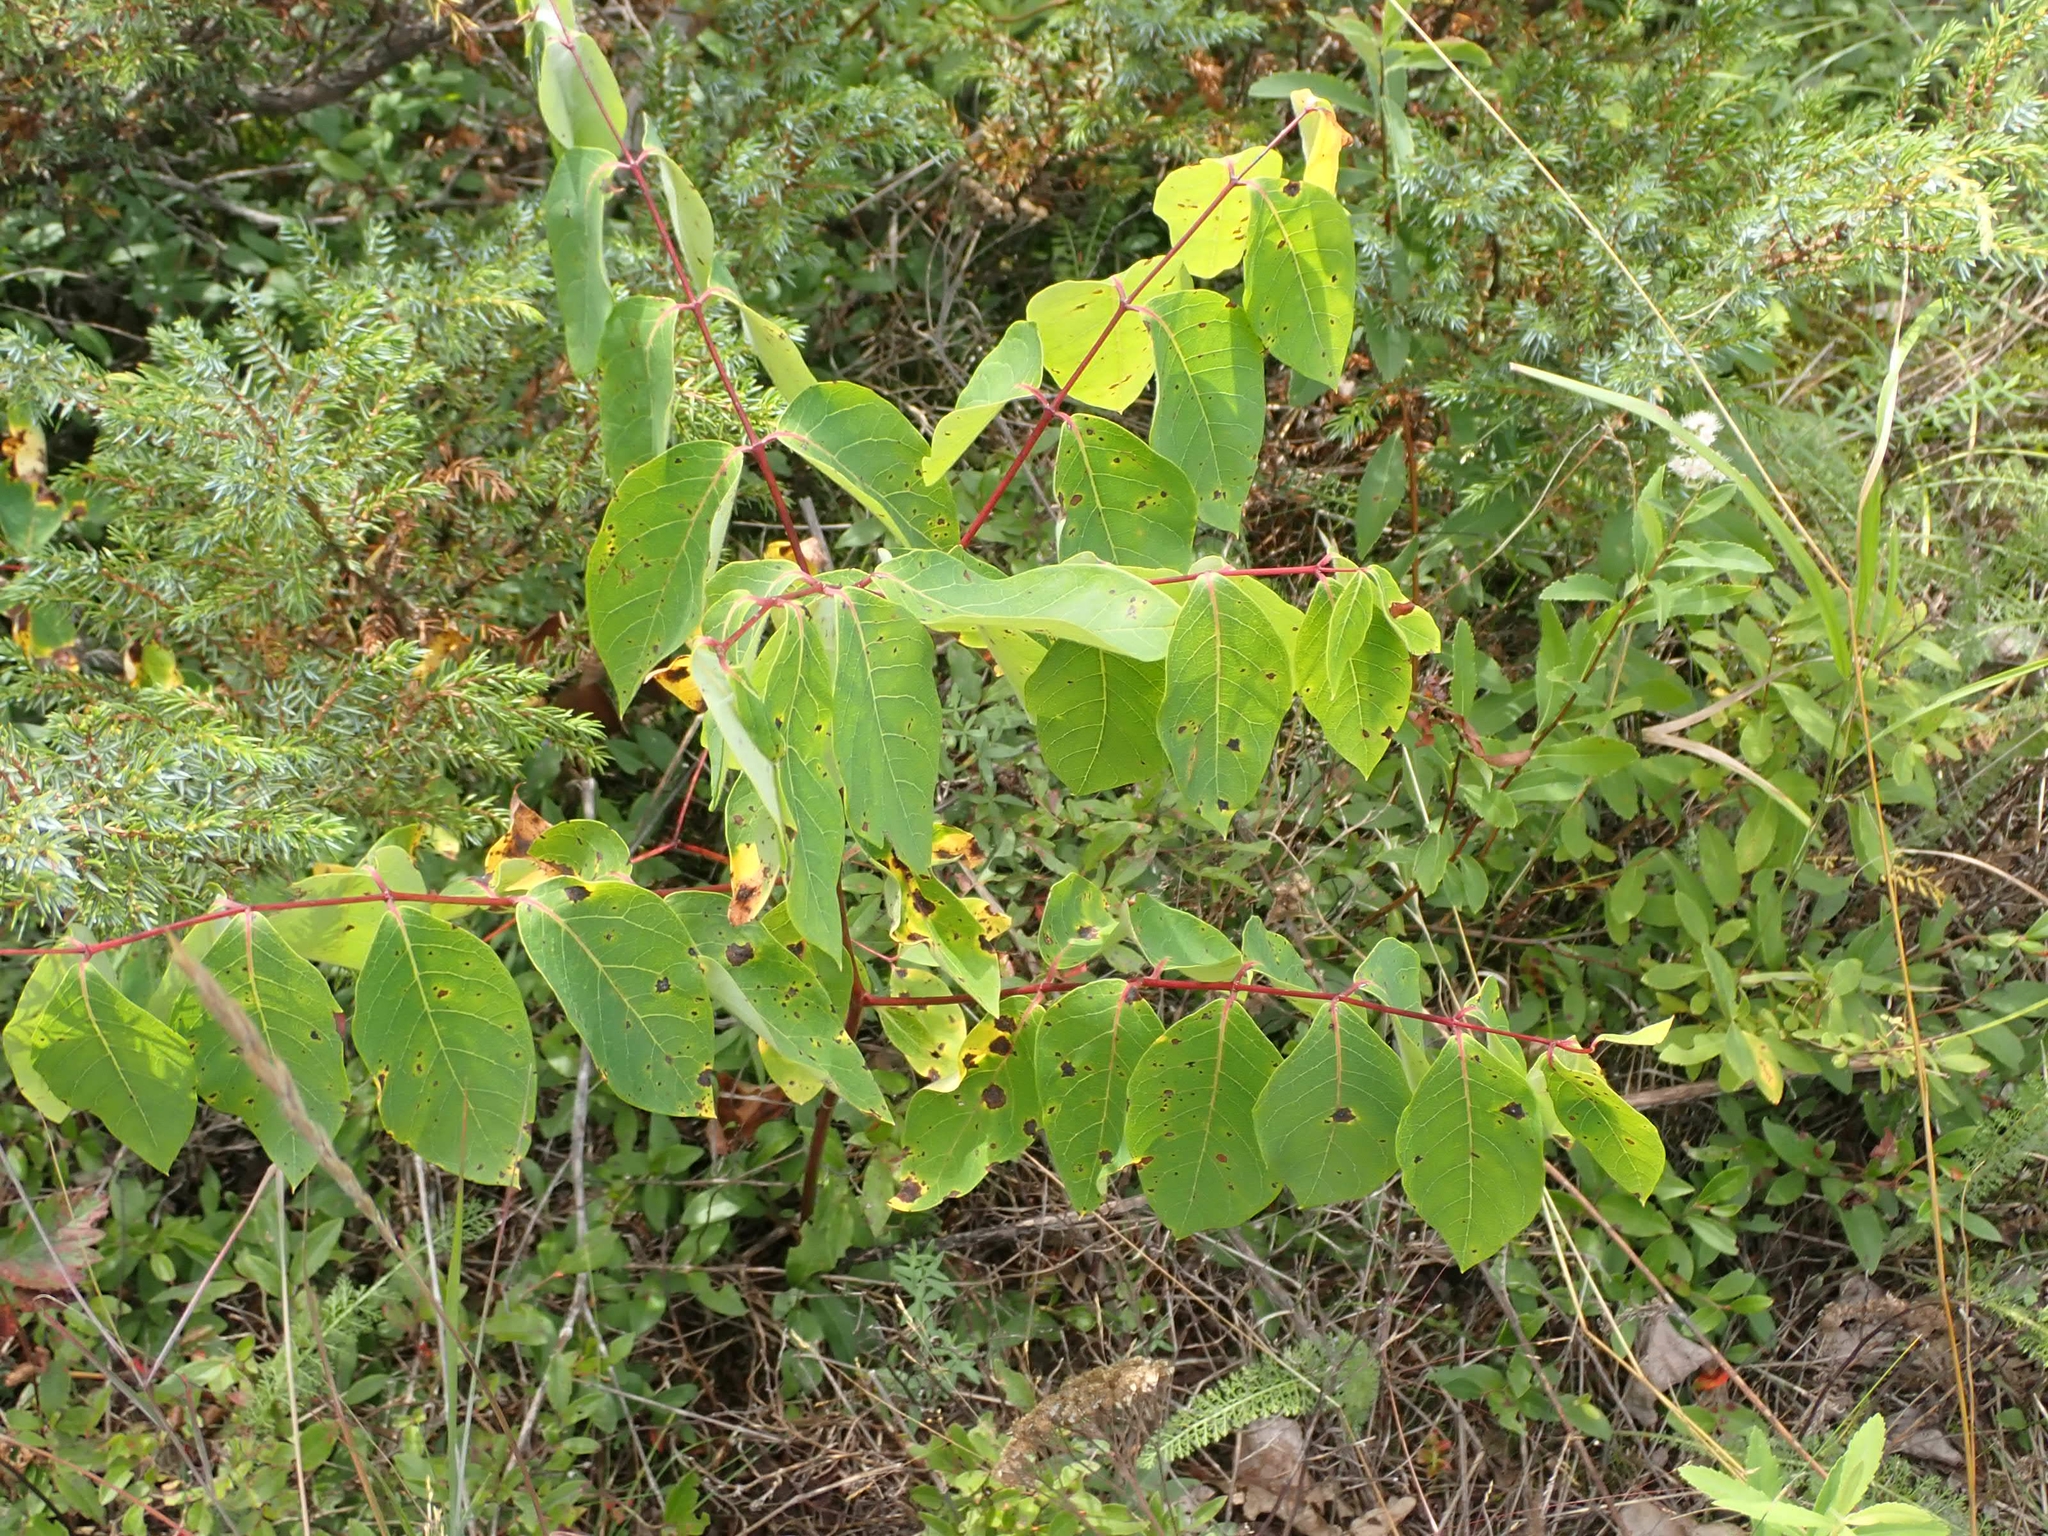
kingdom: Plantae
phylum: Tracheophyta
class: Magnoliopsida
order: Gentianales
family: Apocynaceae
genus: Apocynum
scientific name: Apocynum androsaemifolium
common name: Spreading dogbane
